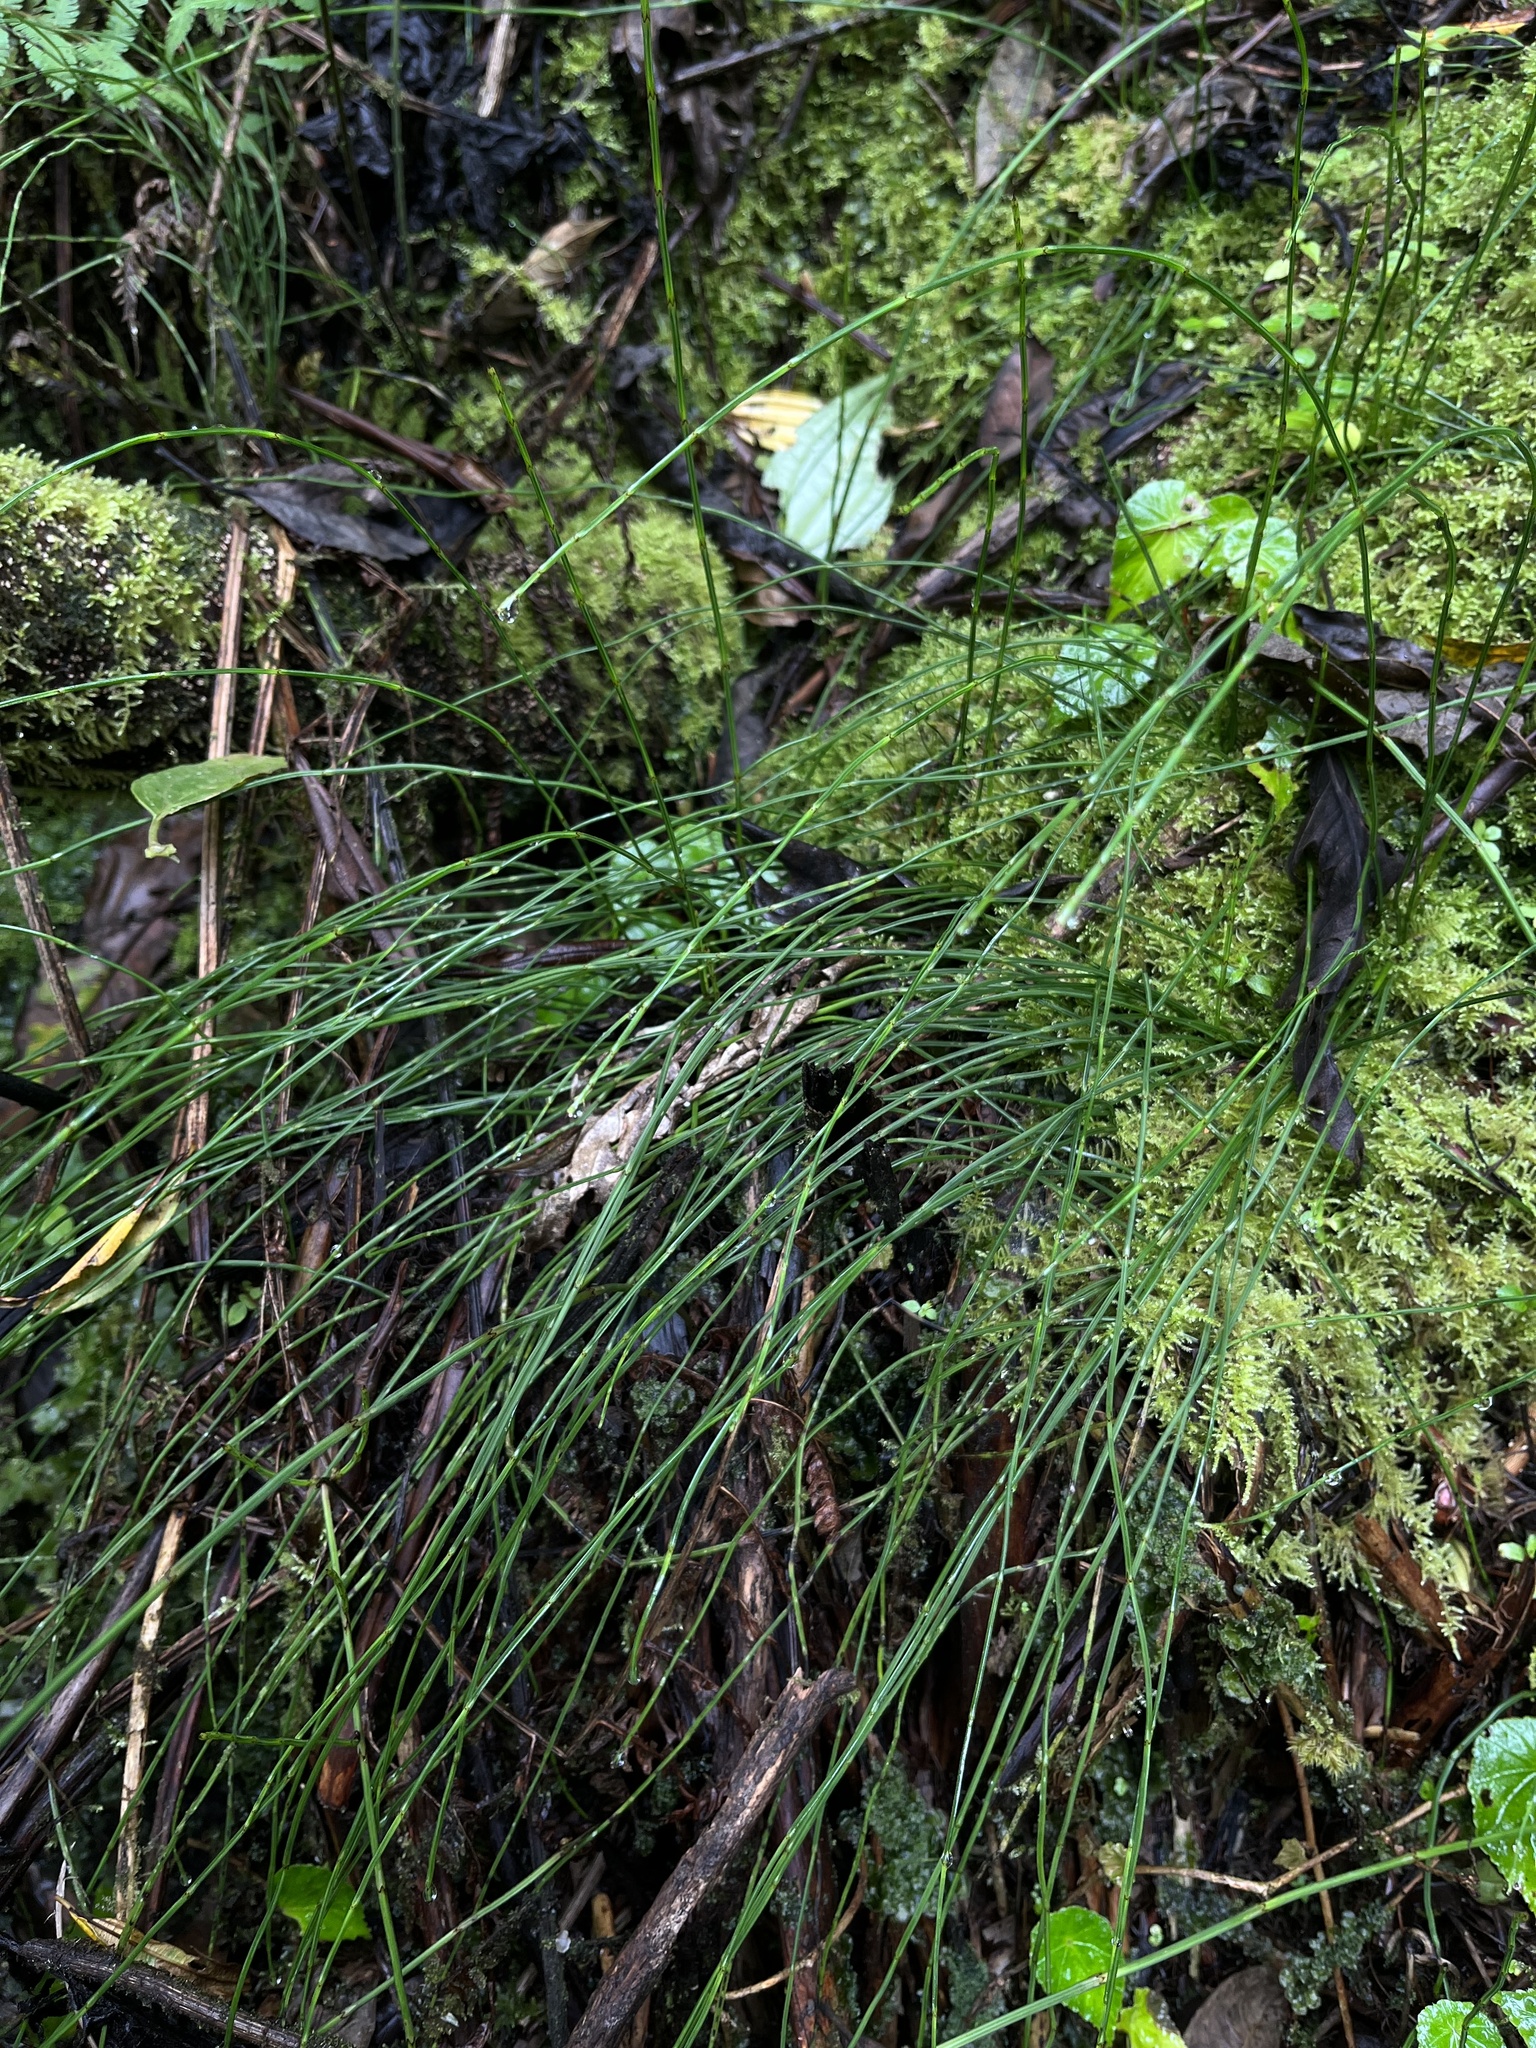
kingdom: Plantae
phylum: Tracheophyta
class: Polypodiopsida
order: Equisetales
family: Equisetaceae
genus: Equisetum
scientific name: Equisetum bogotense
